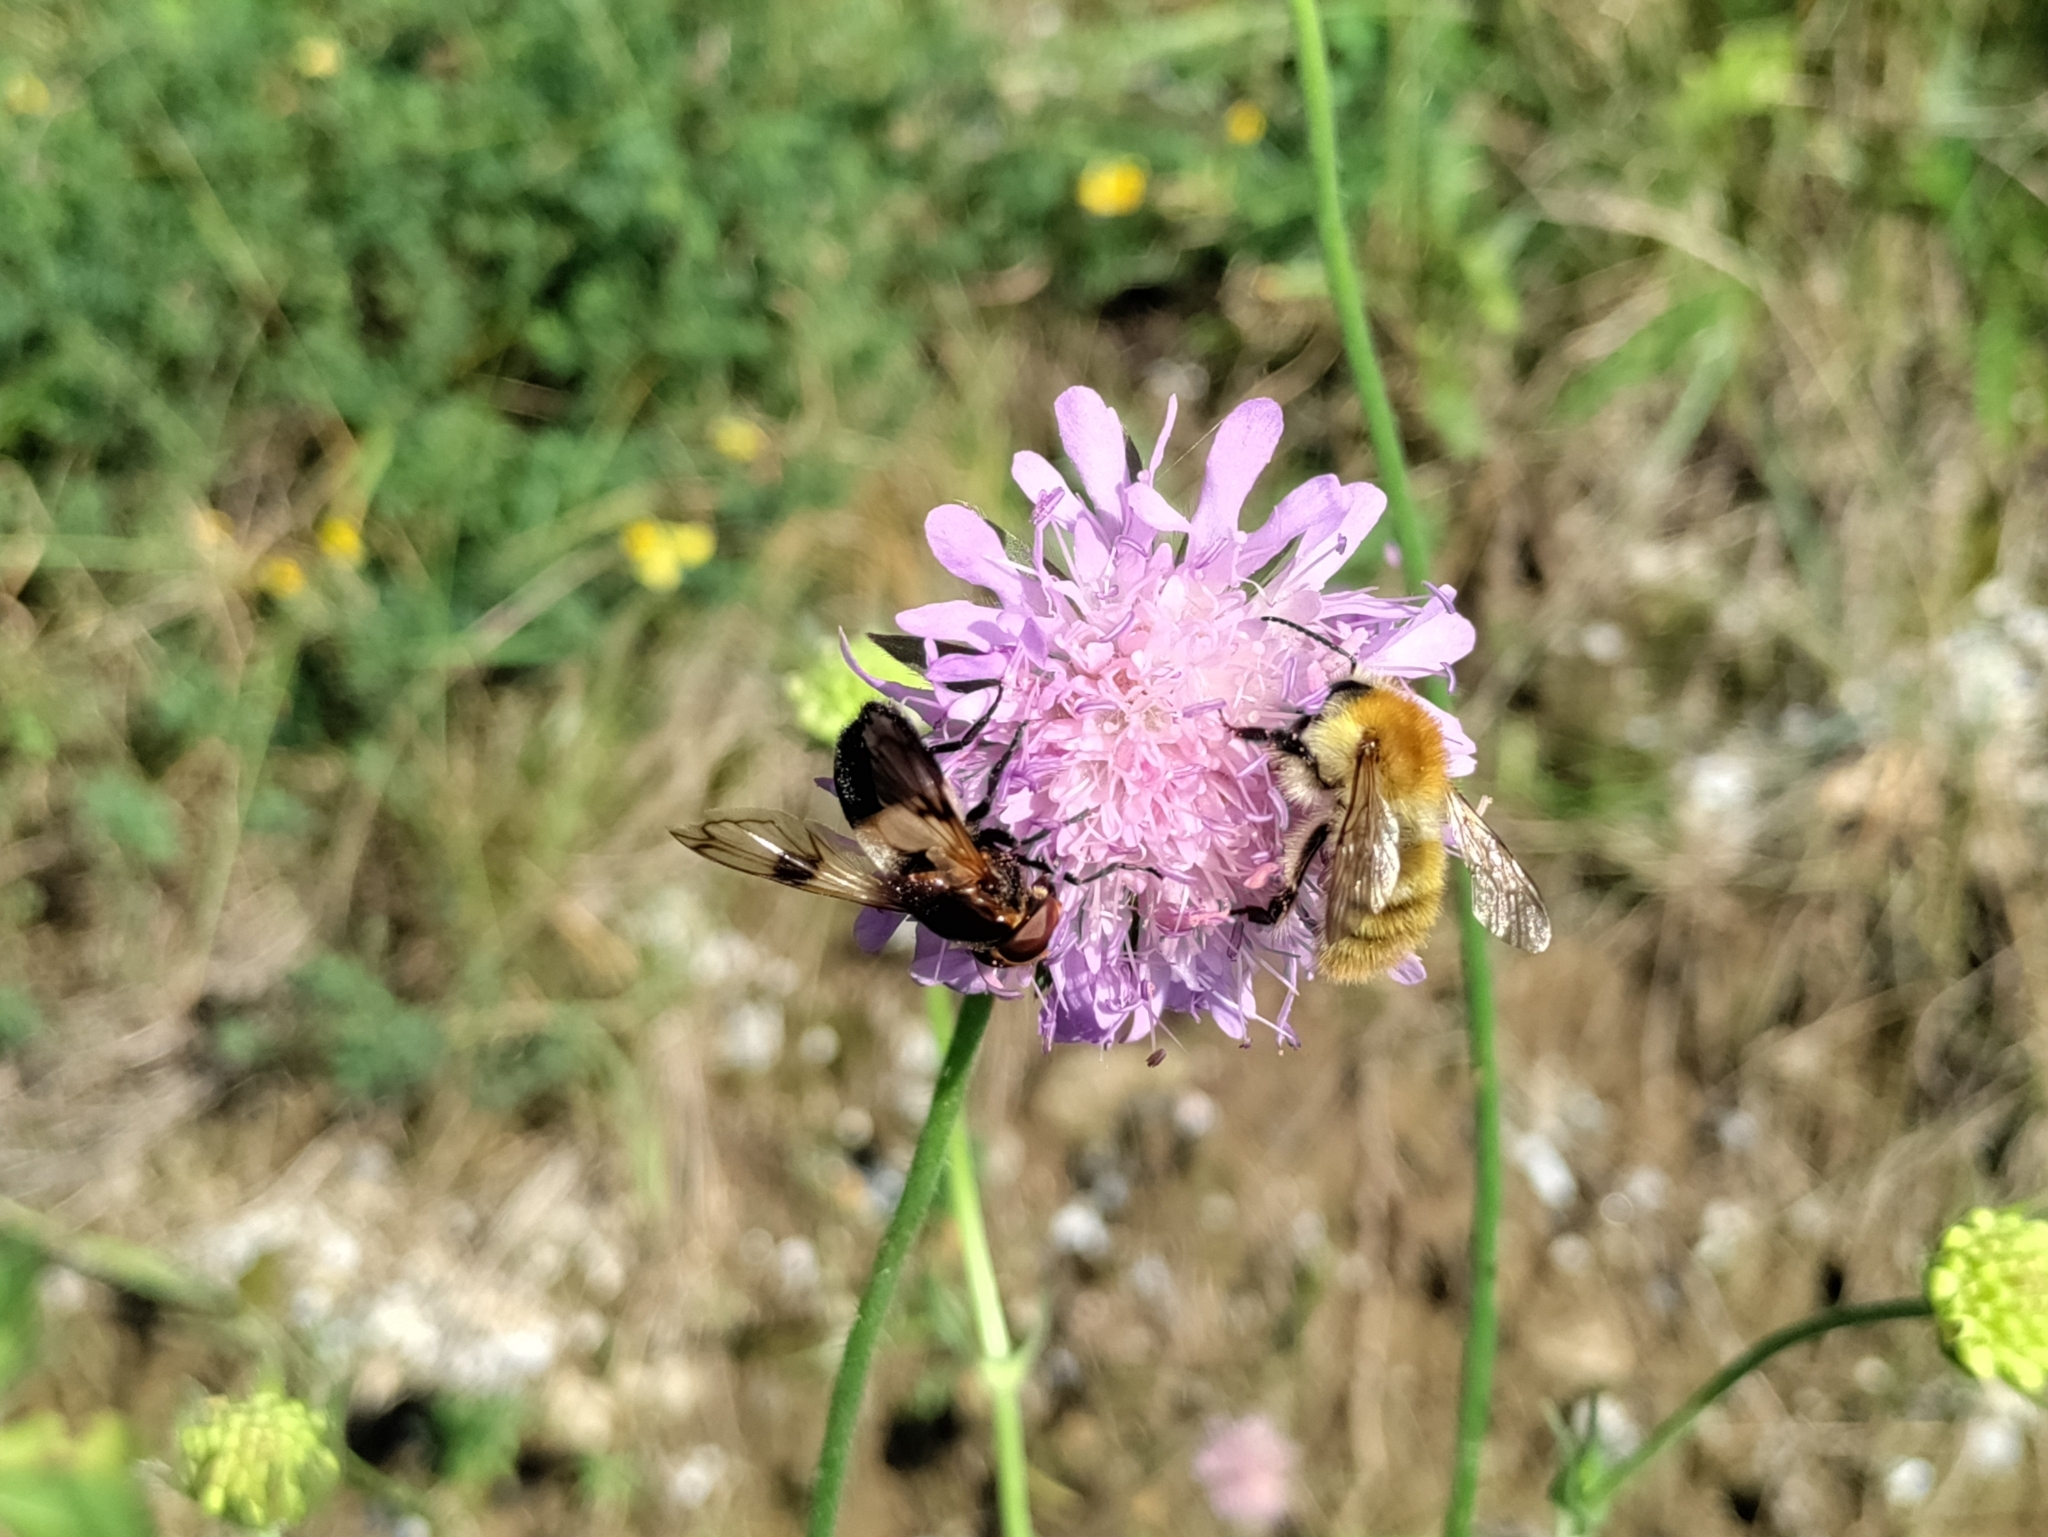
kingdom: Animalia
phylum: Arthropoda
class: Insecta
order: Diptera
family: Syrphidae
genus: Volucella
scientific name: Volucella pellucens
